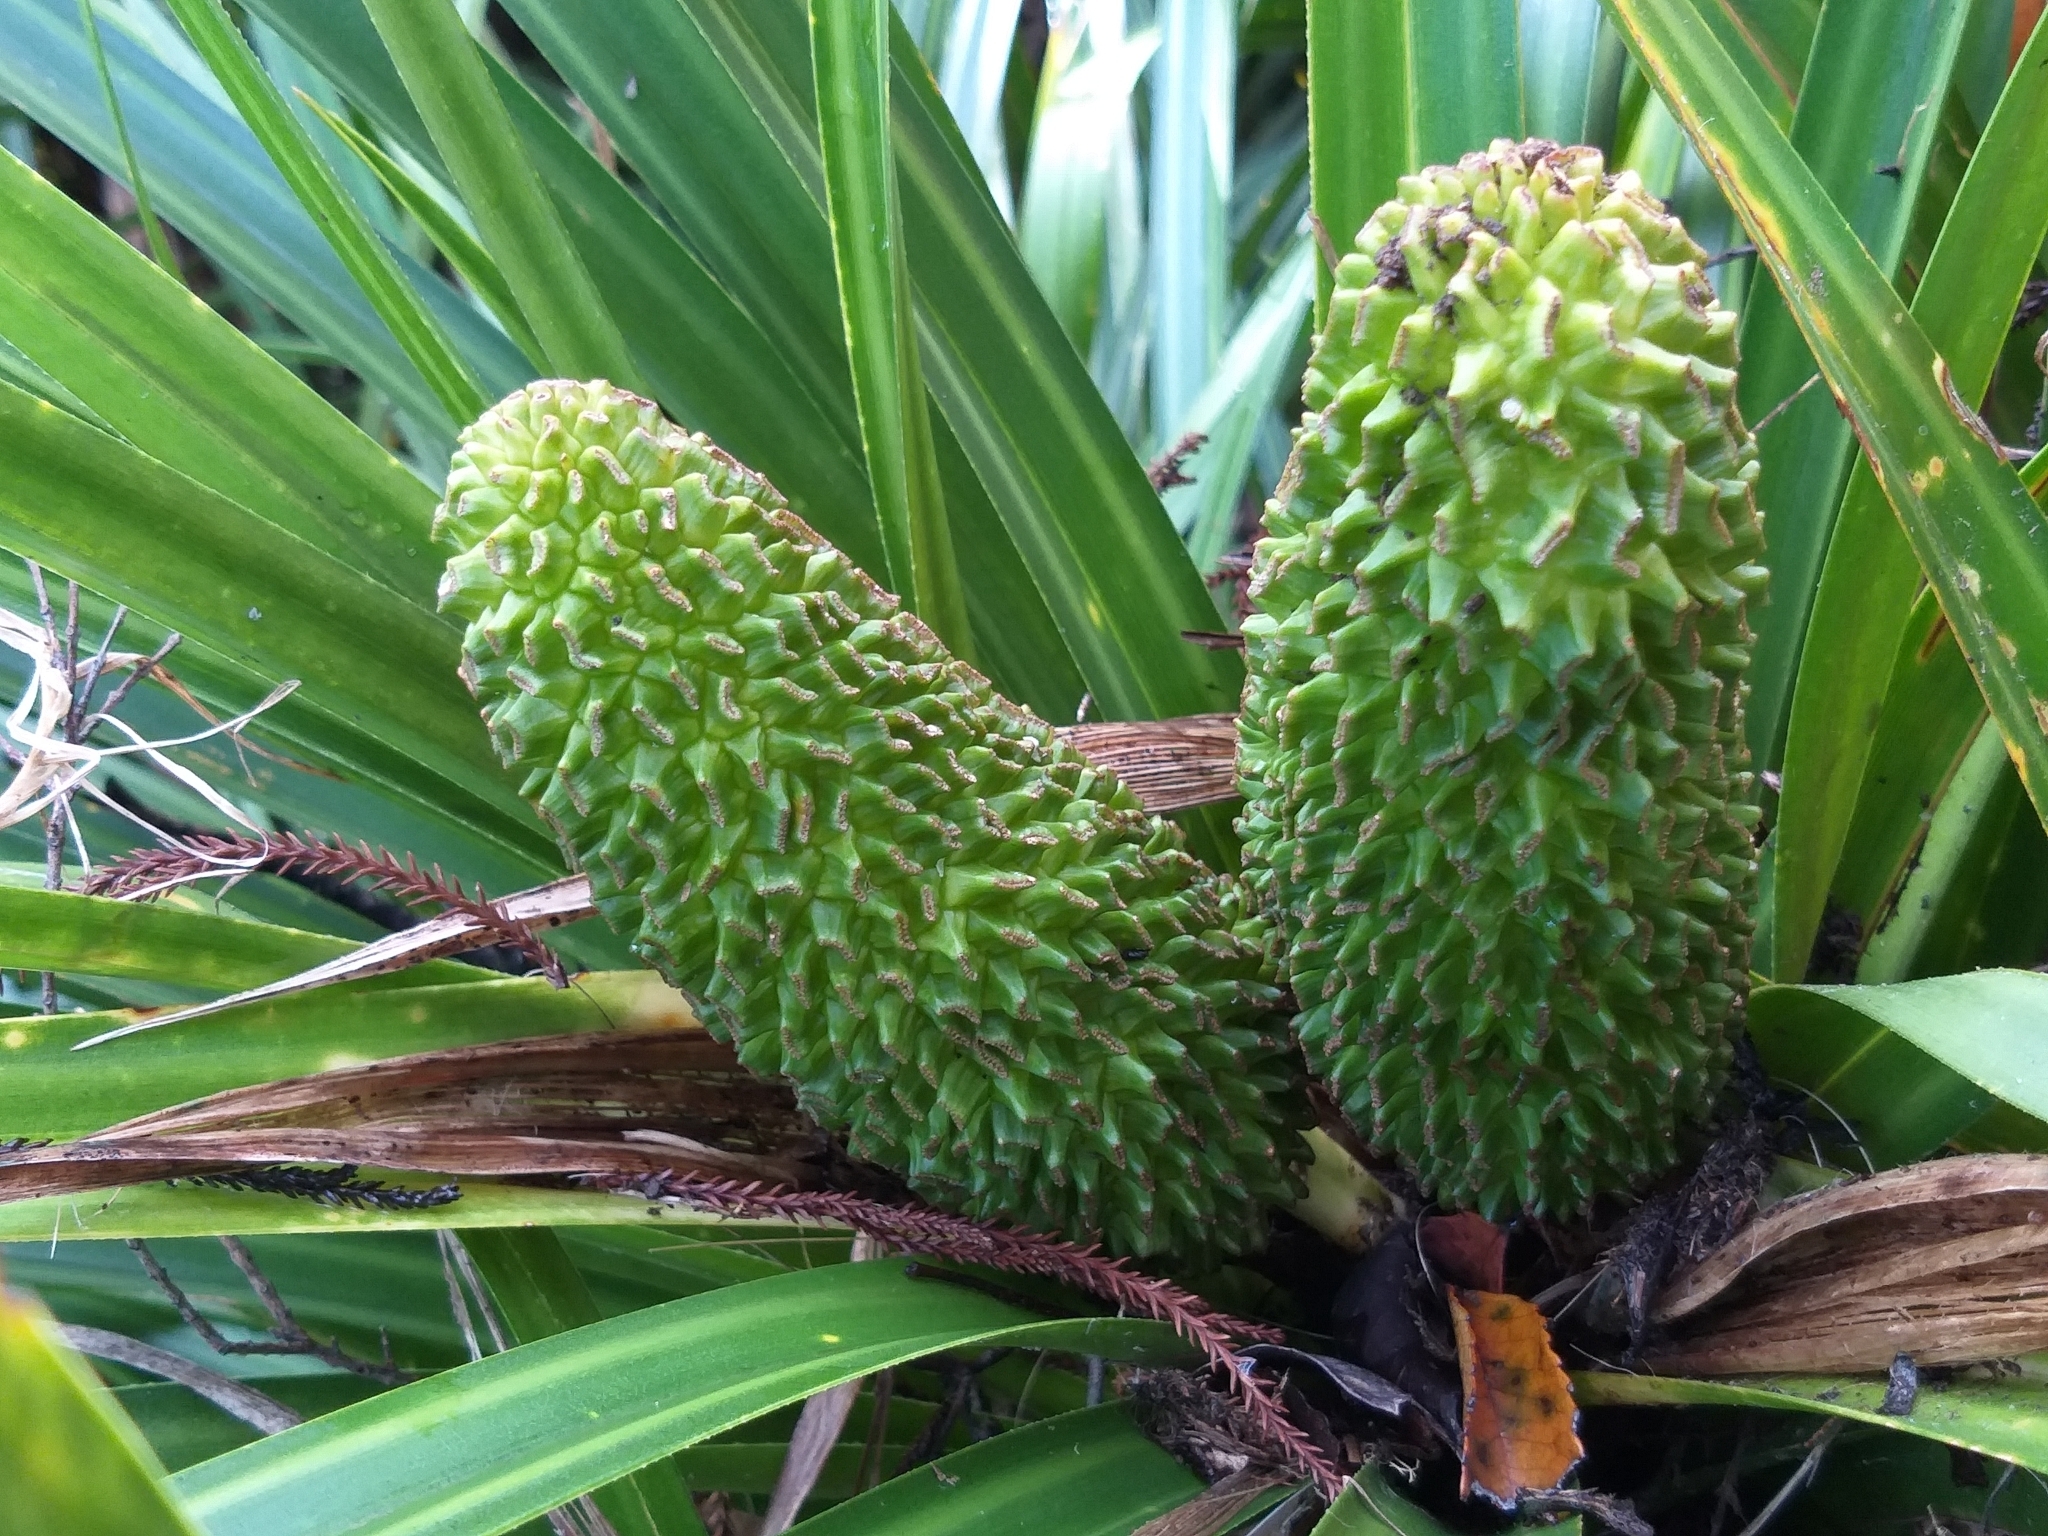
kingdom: Plantae
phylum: Tracheophyta
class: Liliopsida
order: Pandanales
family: Pandanaceae
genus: Freycinetia
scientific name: Freycinetia banksii
